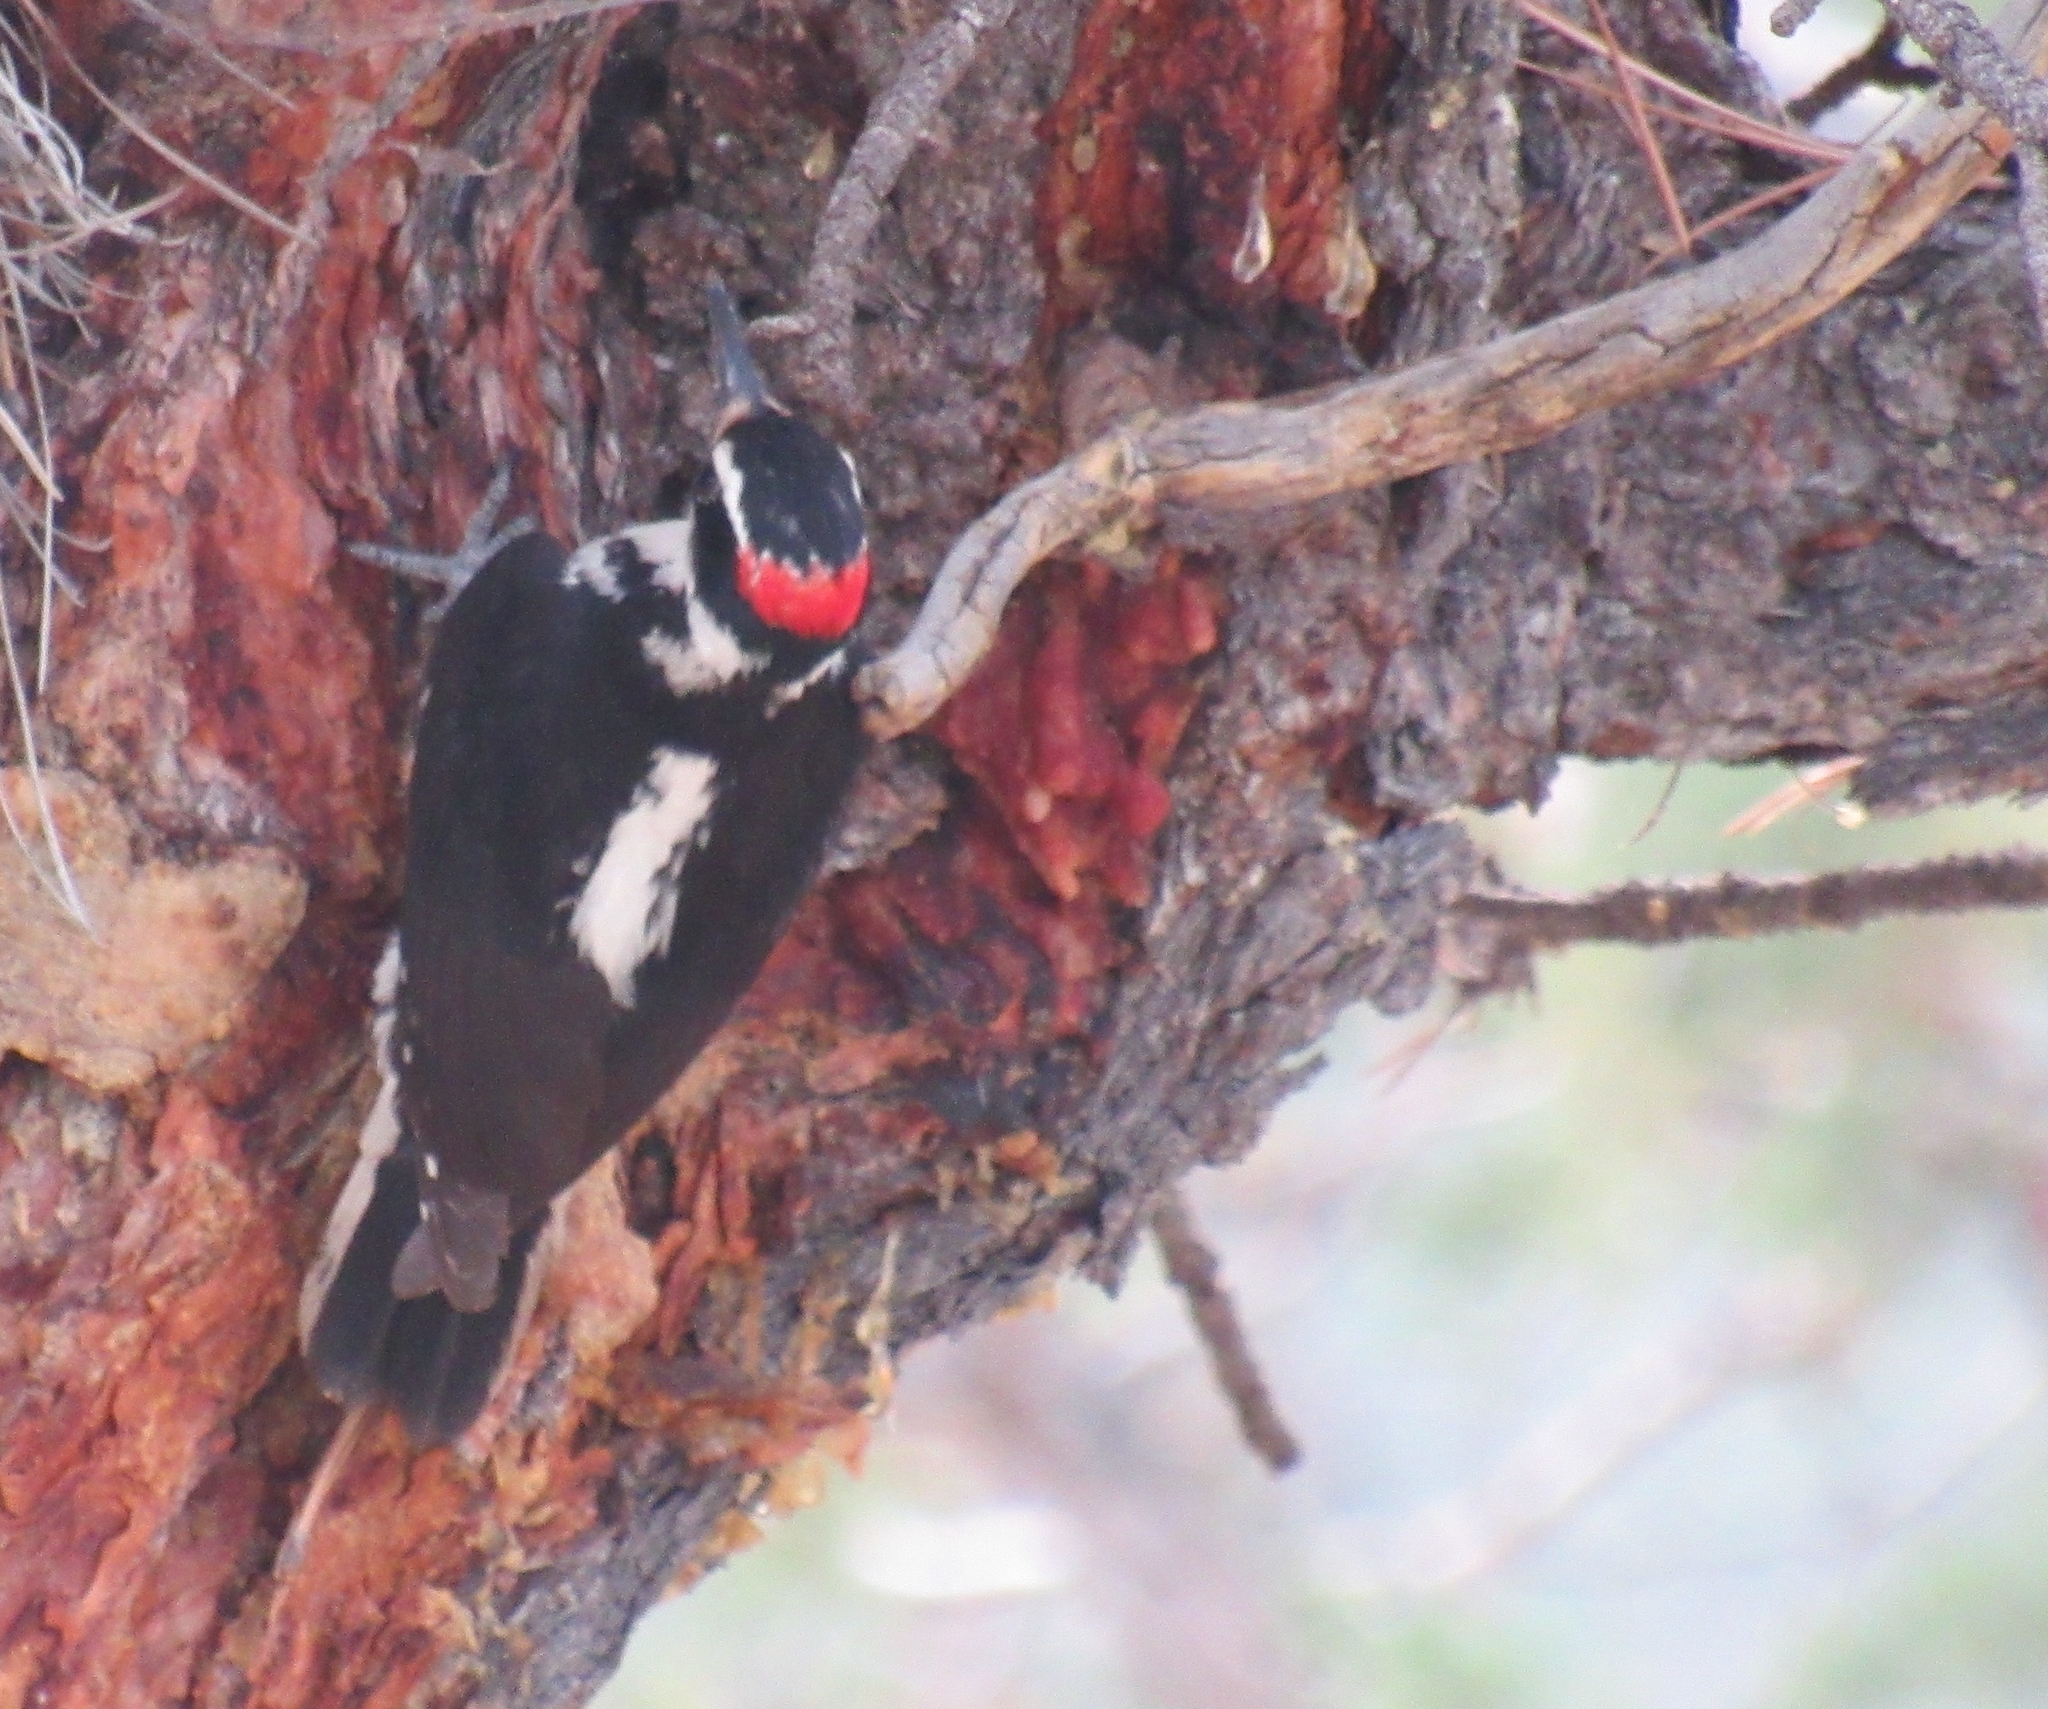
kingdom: Animalia
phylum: Chordata
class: Aves
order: Piciformes
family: Picidae
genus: Leuconotopicus
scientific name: Leuconotopicus villosus
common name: Hairy woodpecker
